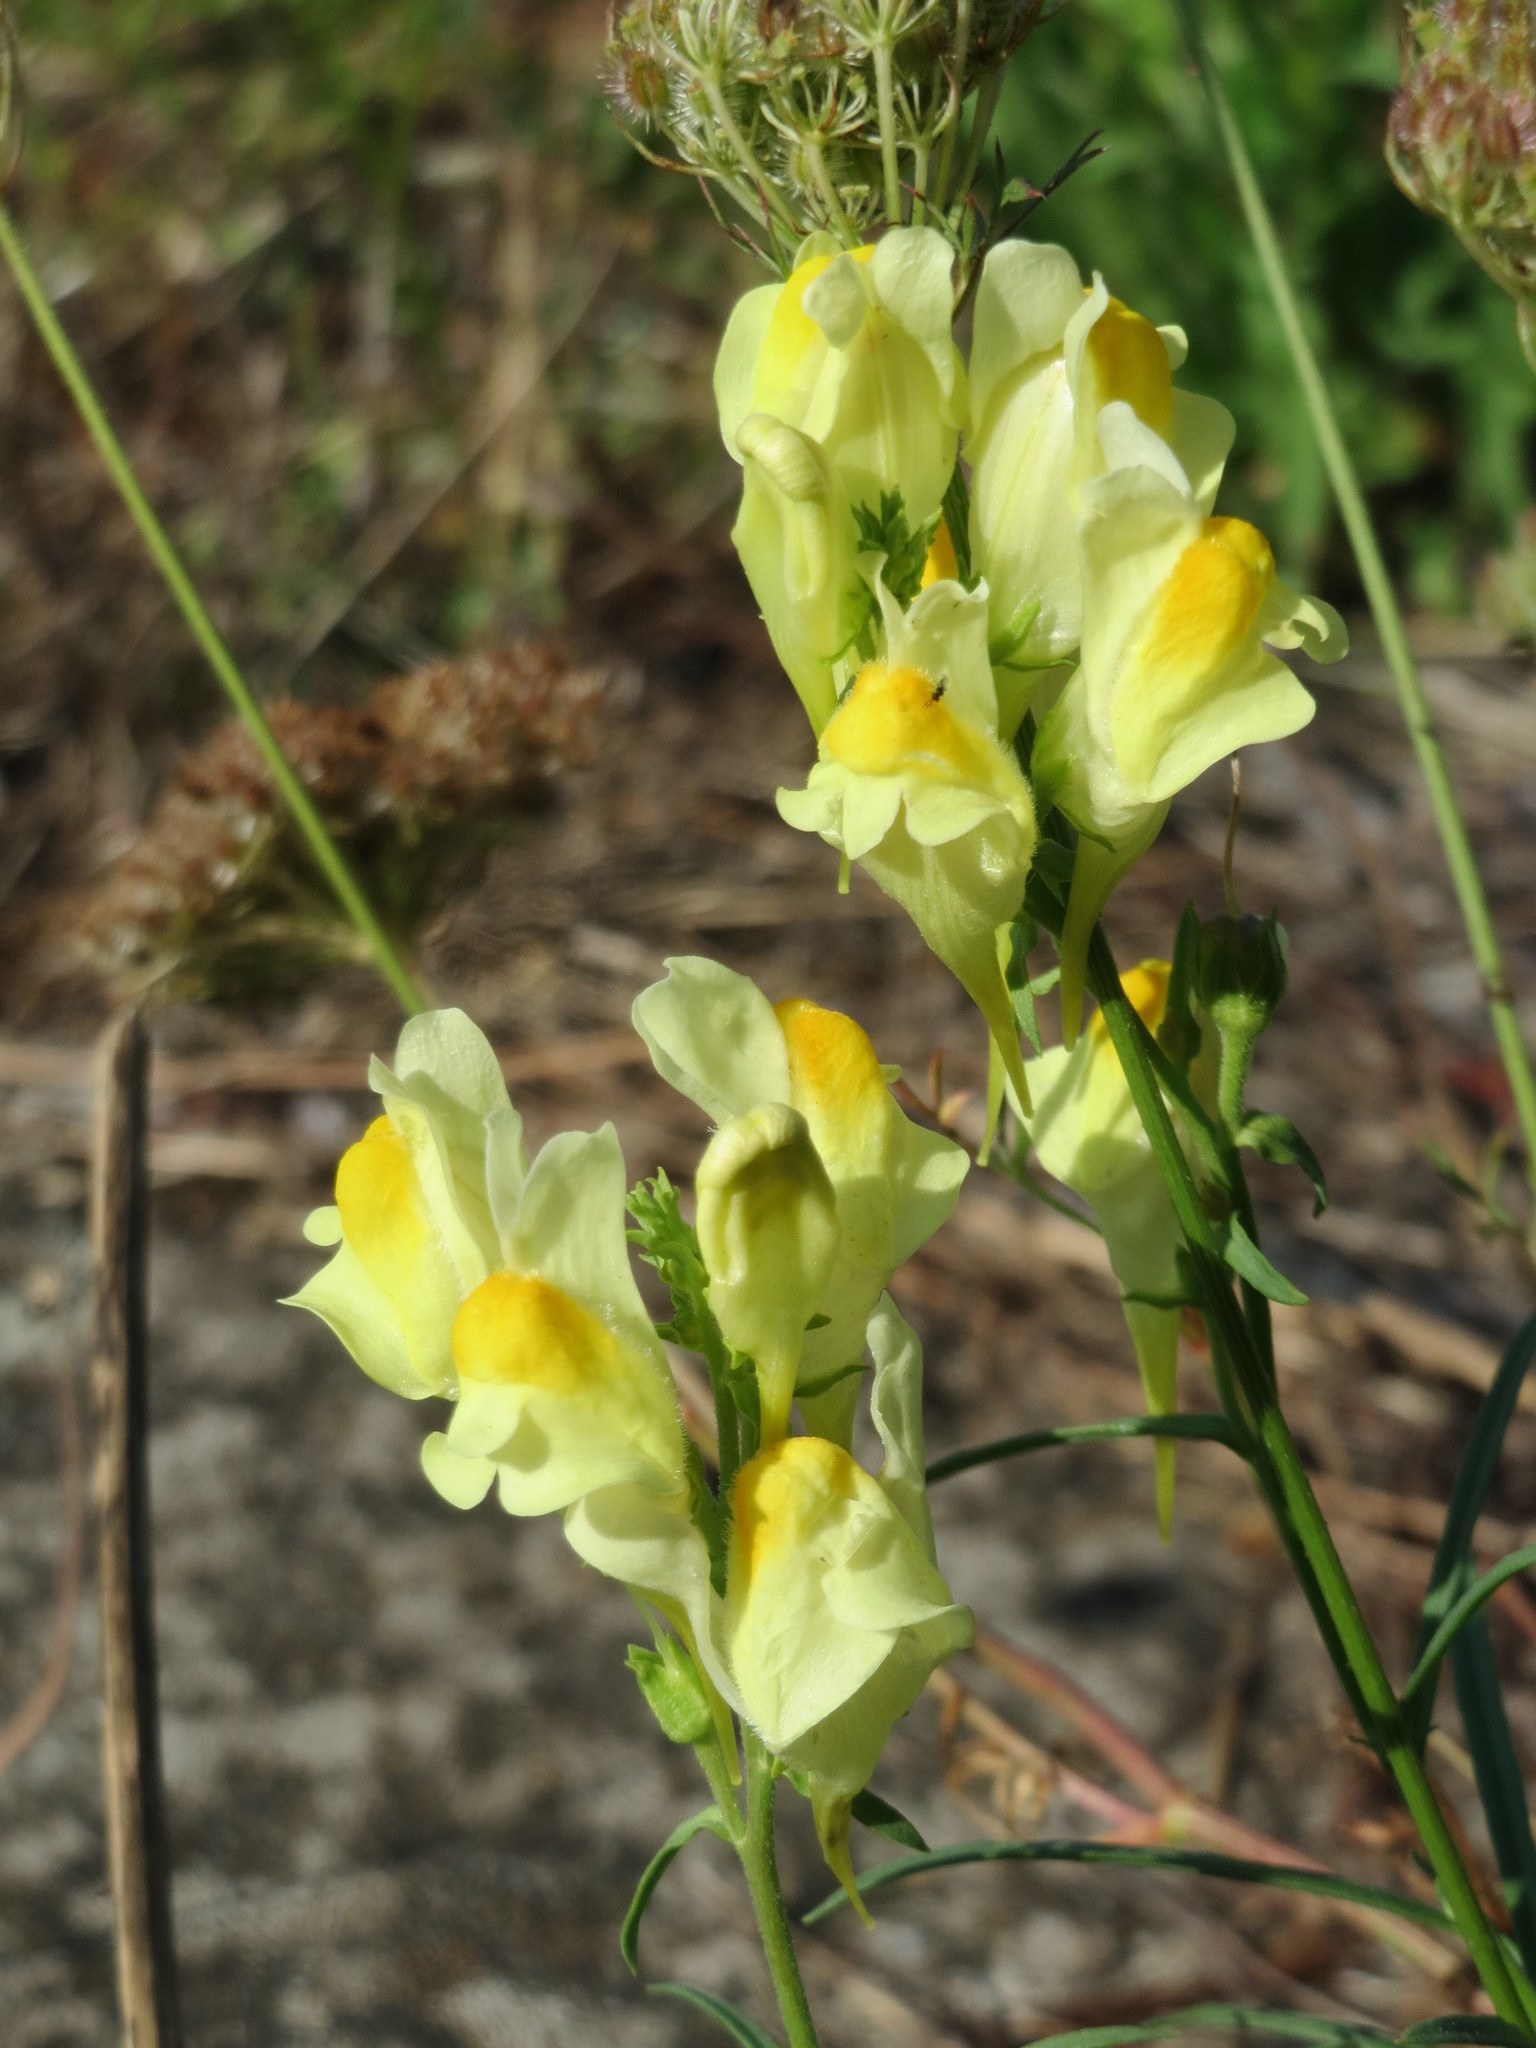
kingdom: Plantae
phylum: Tracheophyta
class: Magnoliopsida
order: Lamiales
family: Plantaginaceae
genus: Linaria
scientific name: Linaria vulgaris
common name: Butter and eggs
